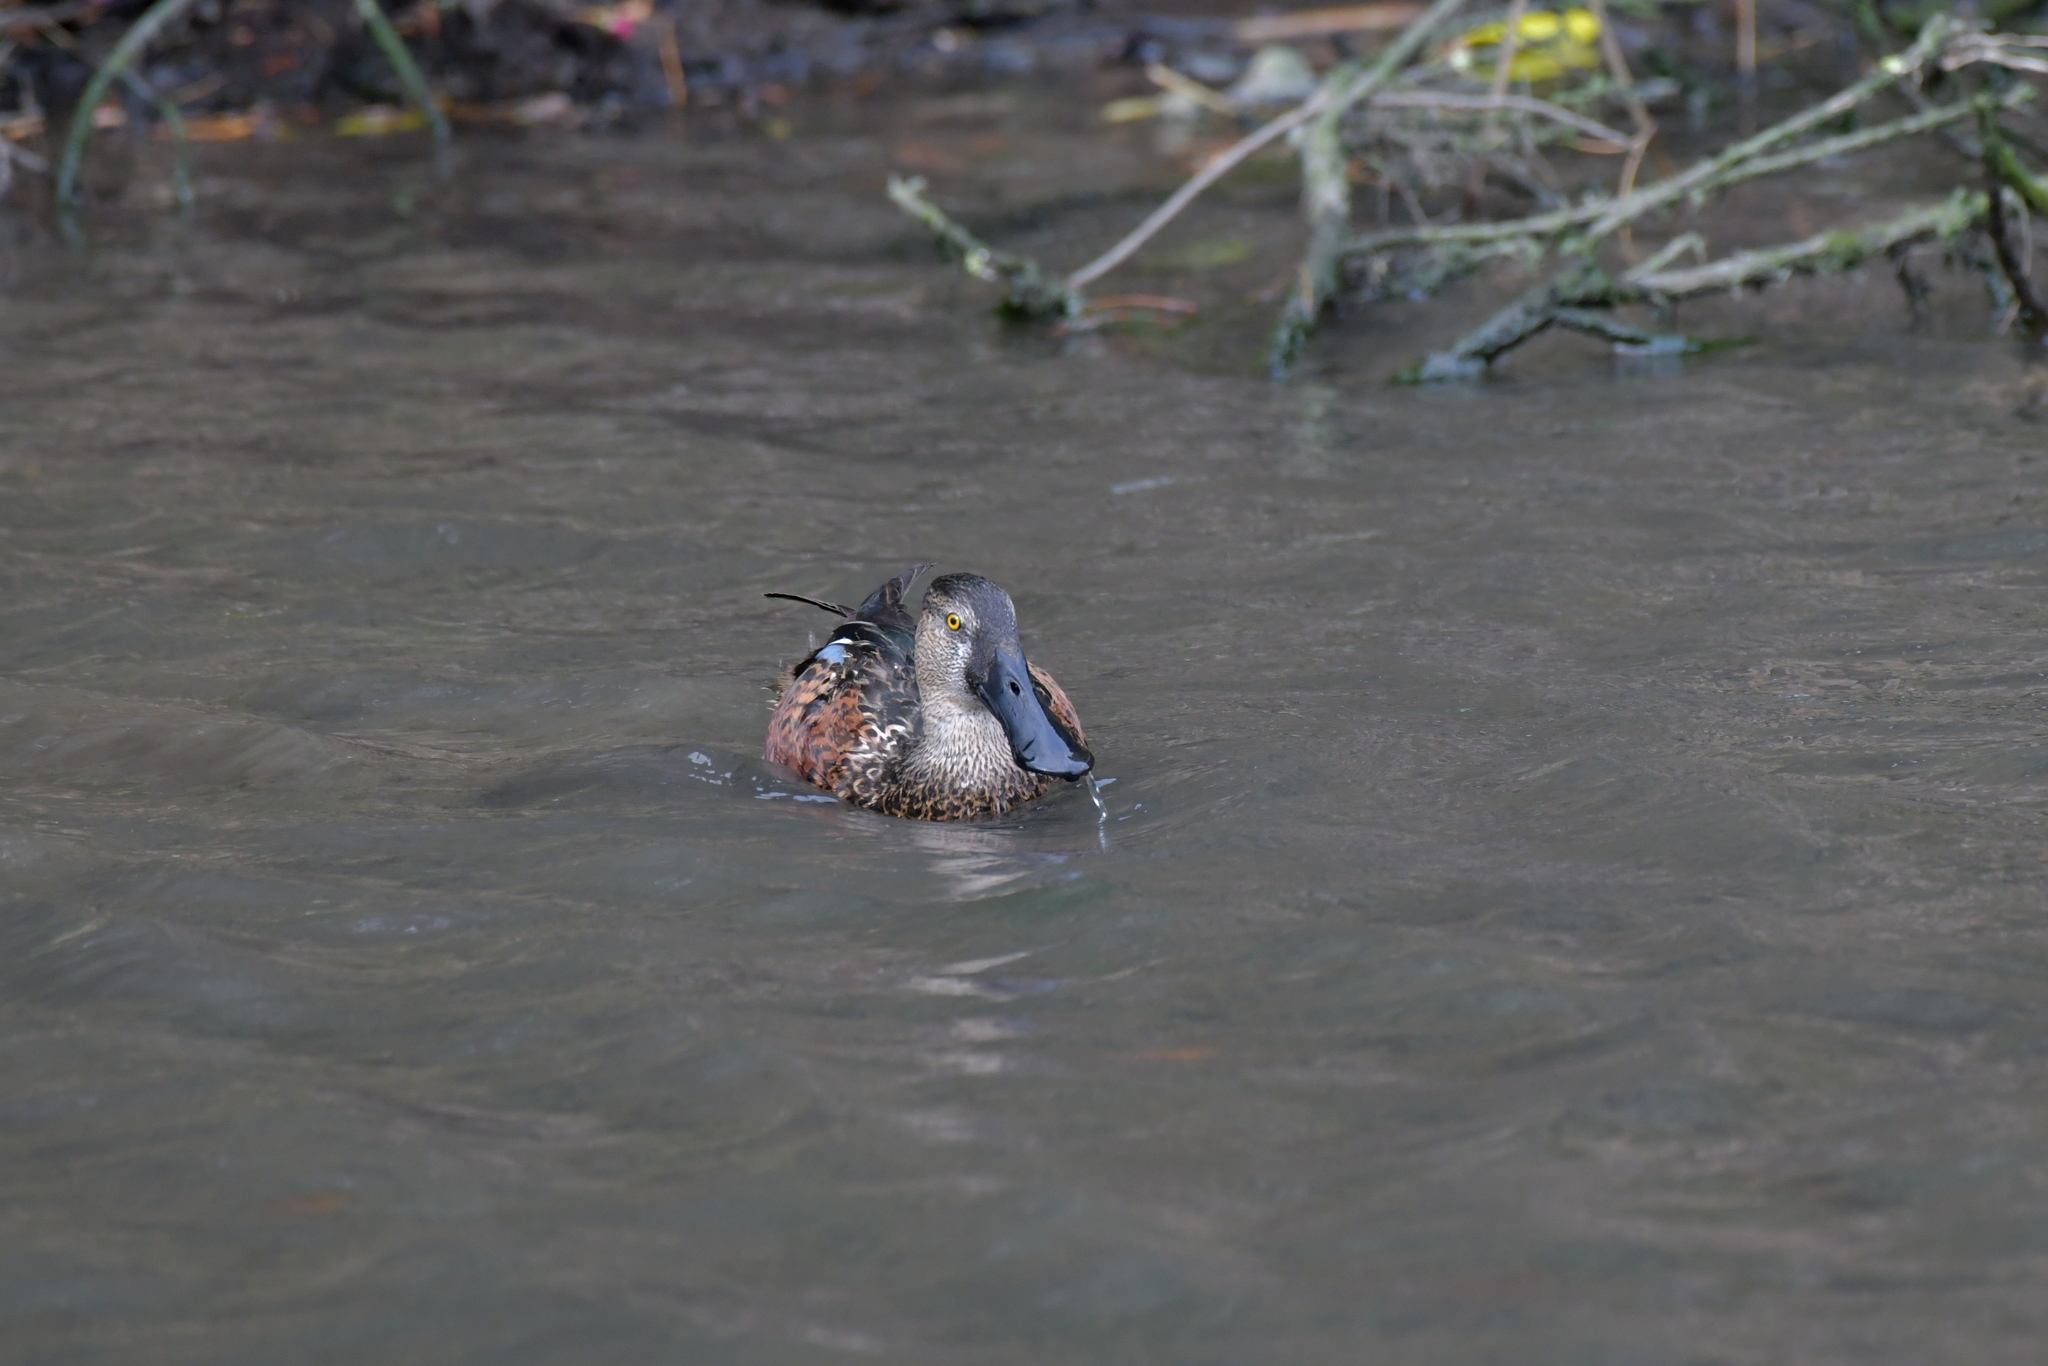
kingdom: Animalia
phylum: Chordata
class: Aves
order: Anseriformes
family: Anatidae
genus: Spatula
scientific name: Spatula rhynchotis
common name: Australian shoveler
